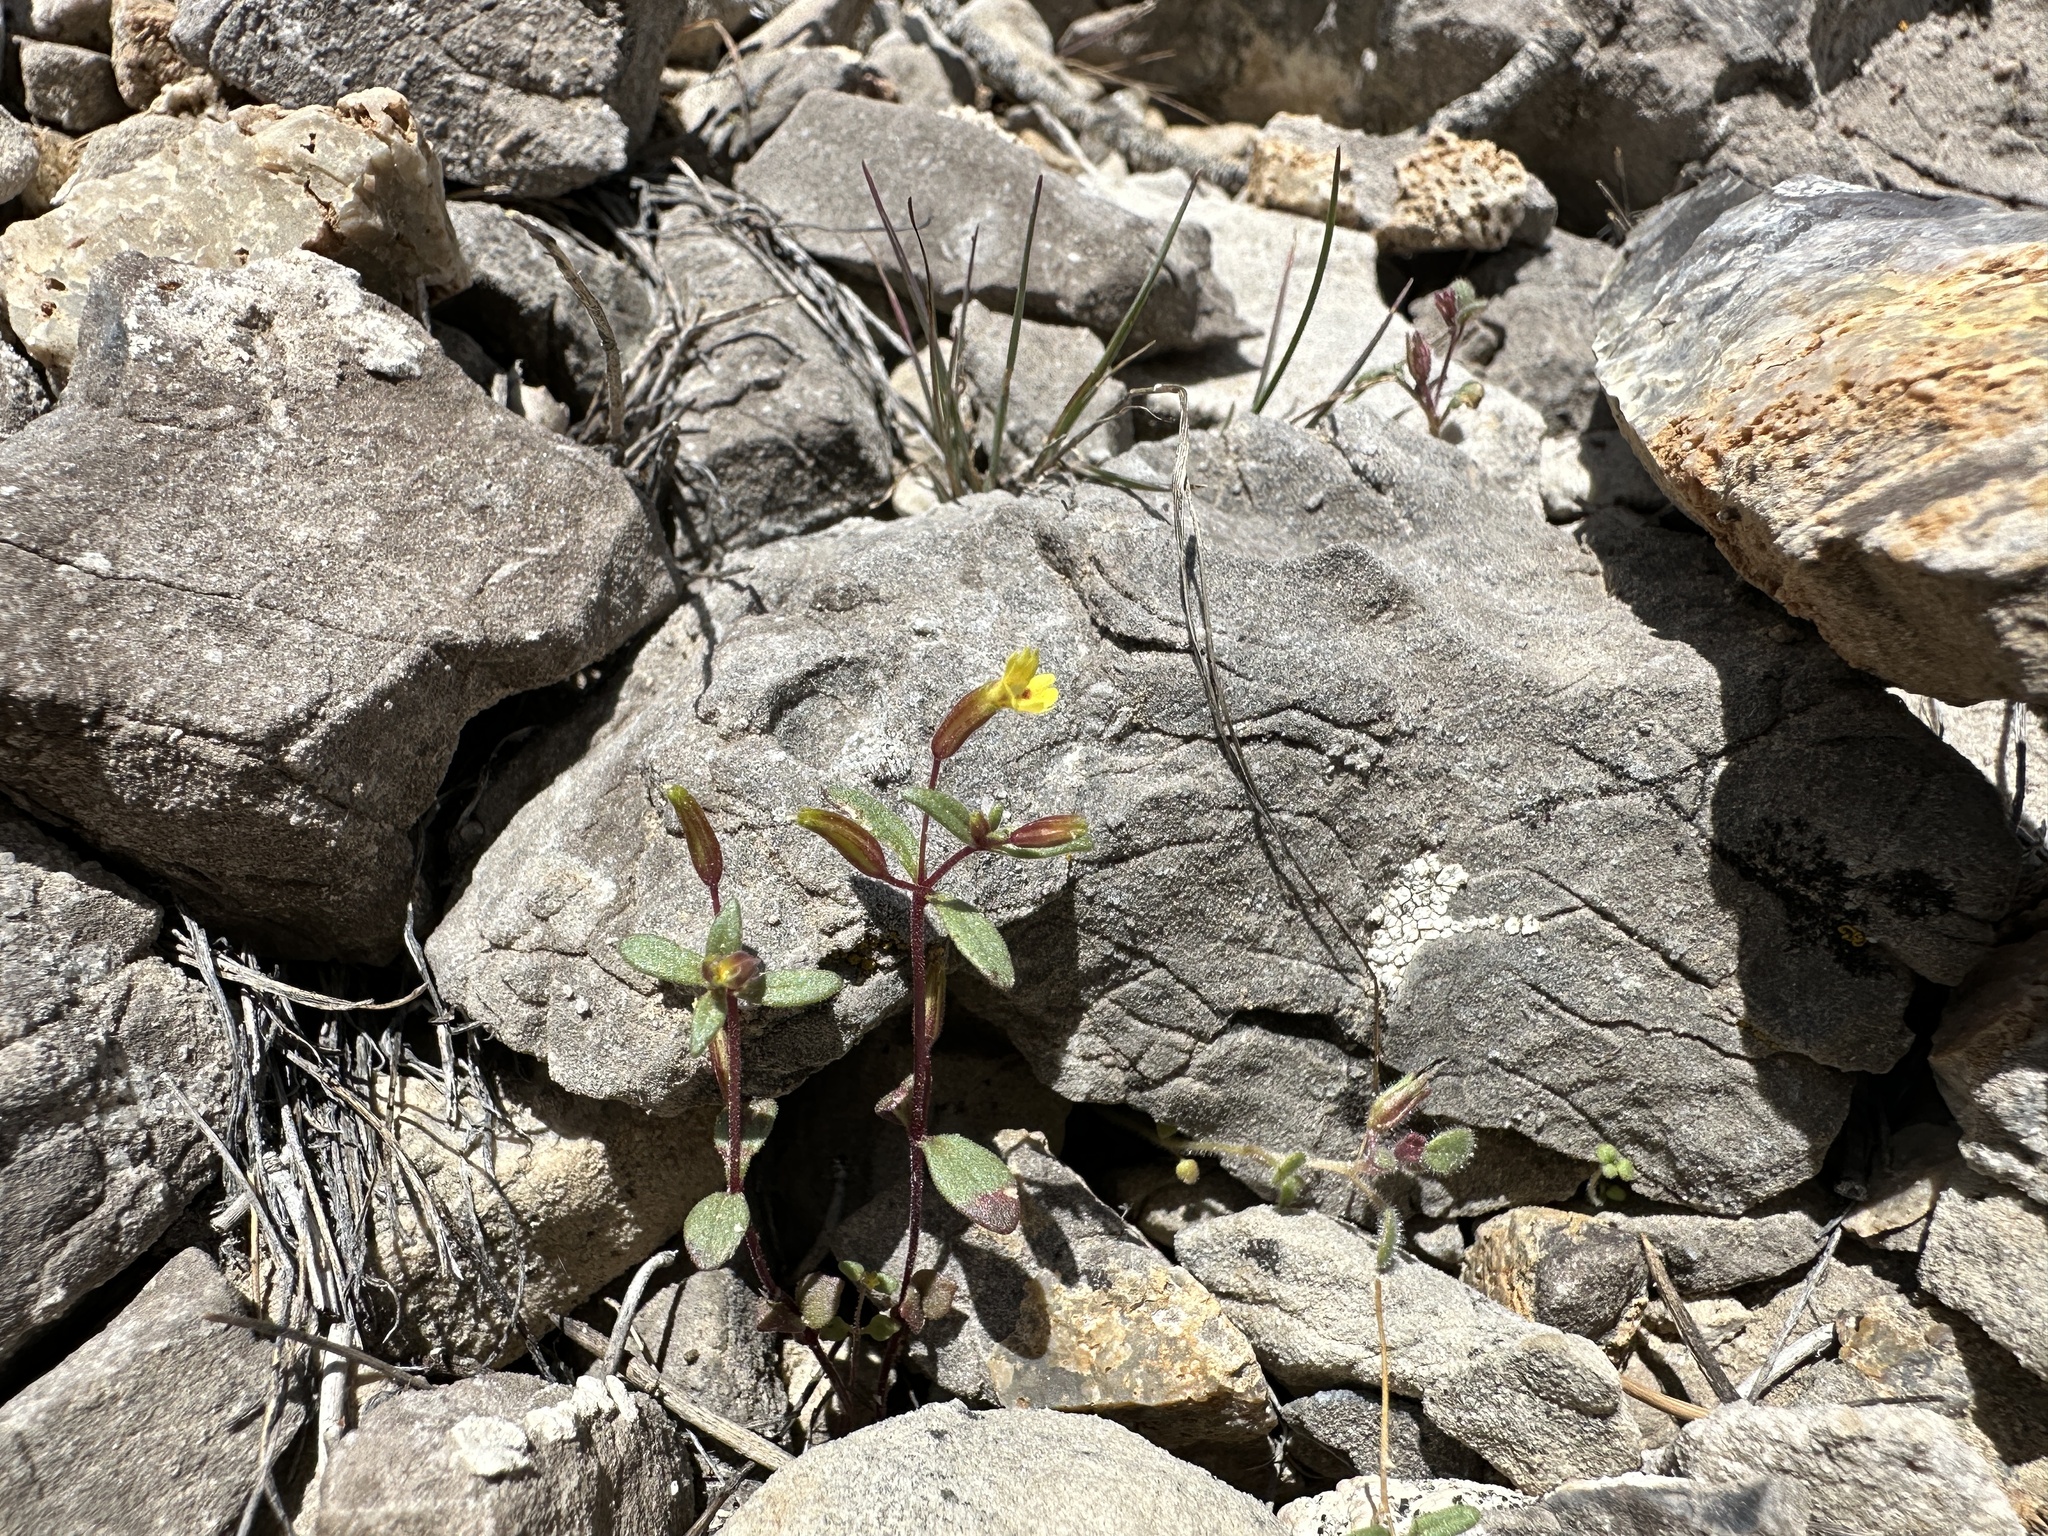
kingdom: Plantae
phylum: Tracheophyta
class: Magnoliopsida
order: Lamiales
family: Phrymaceae
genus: Erythranthe
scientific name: Erythranthe rubella
